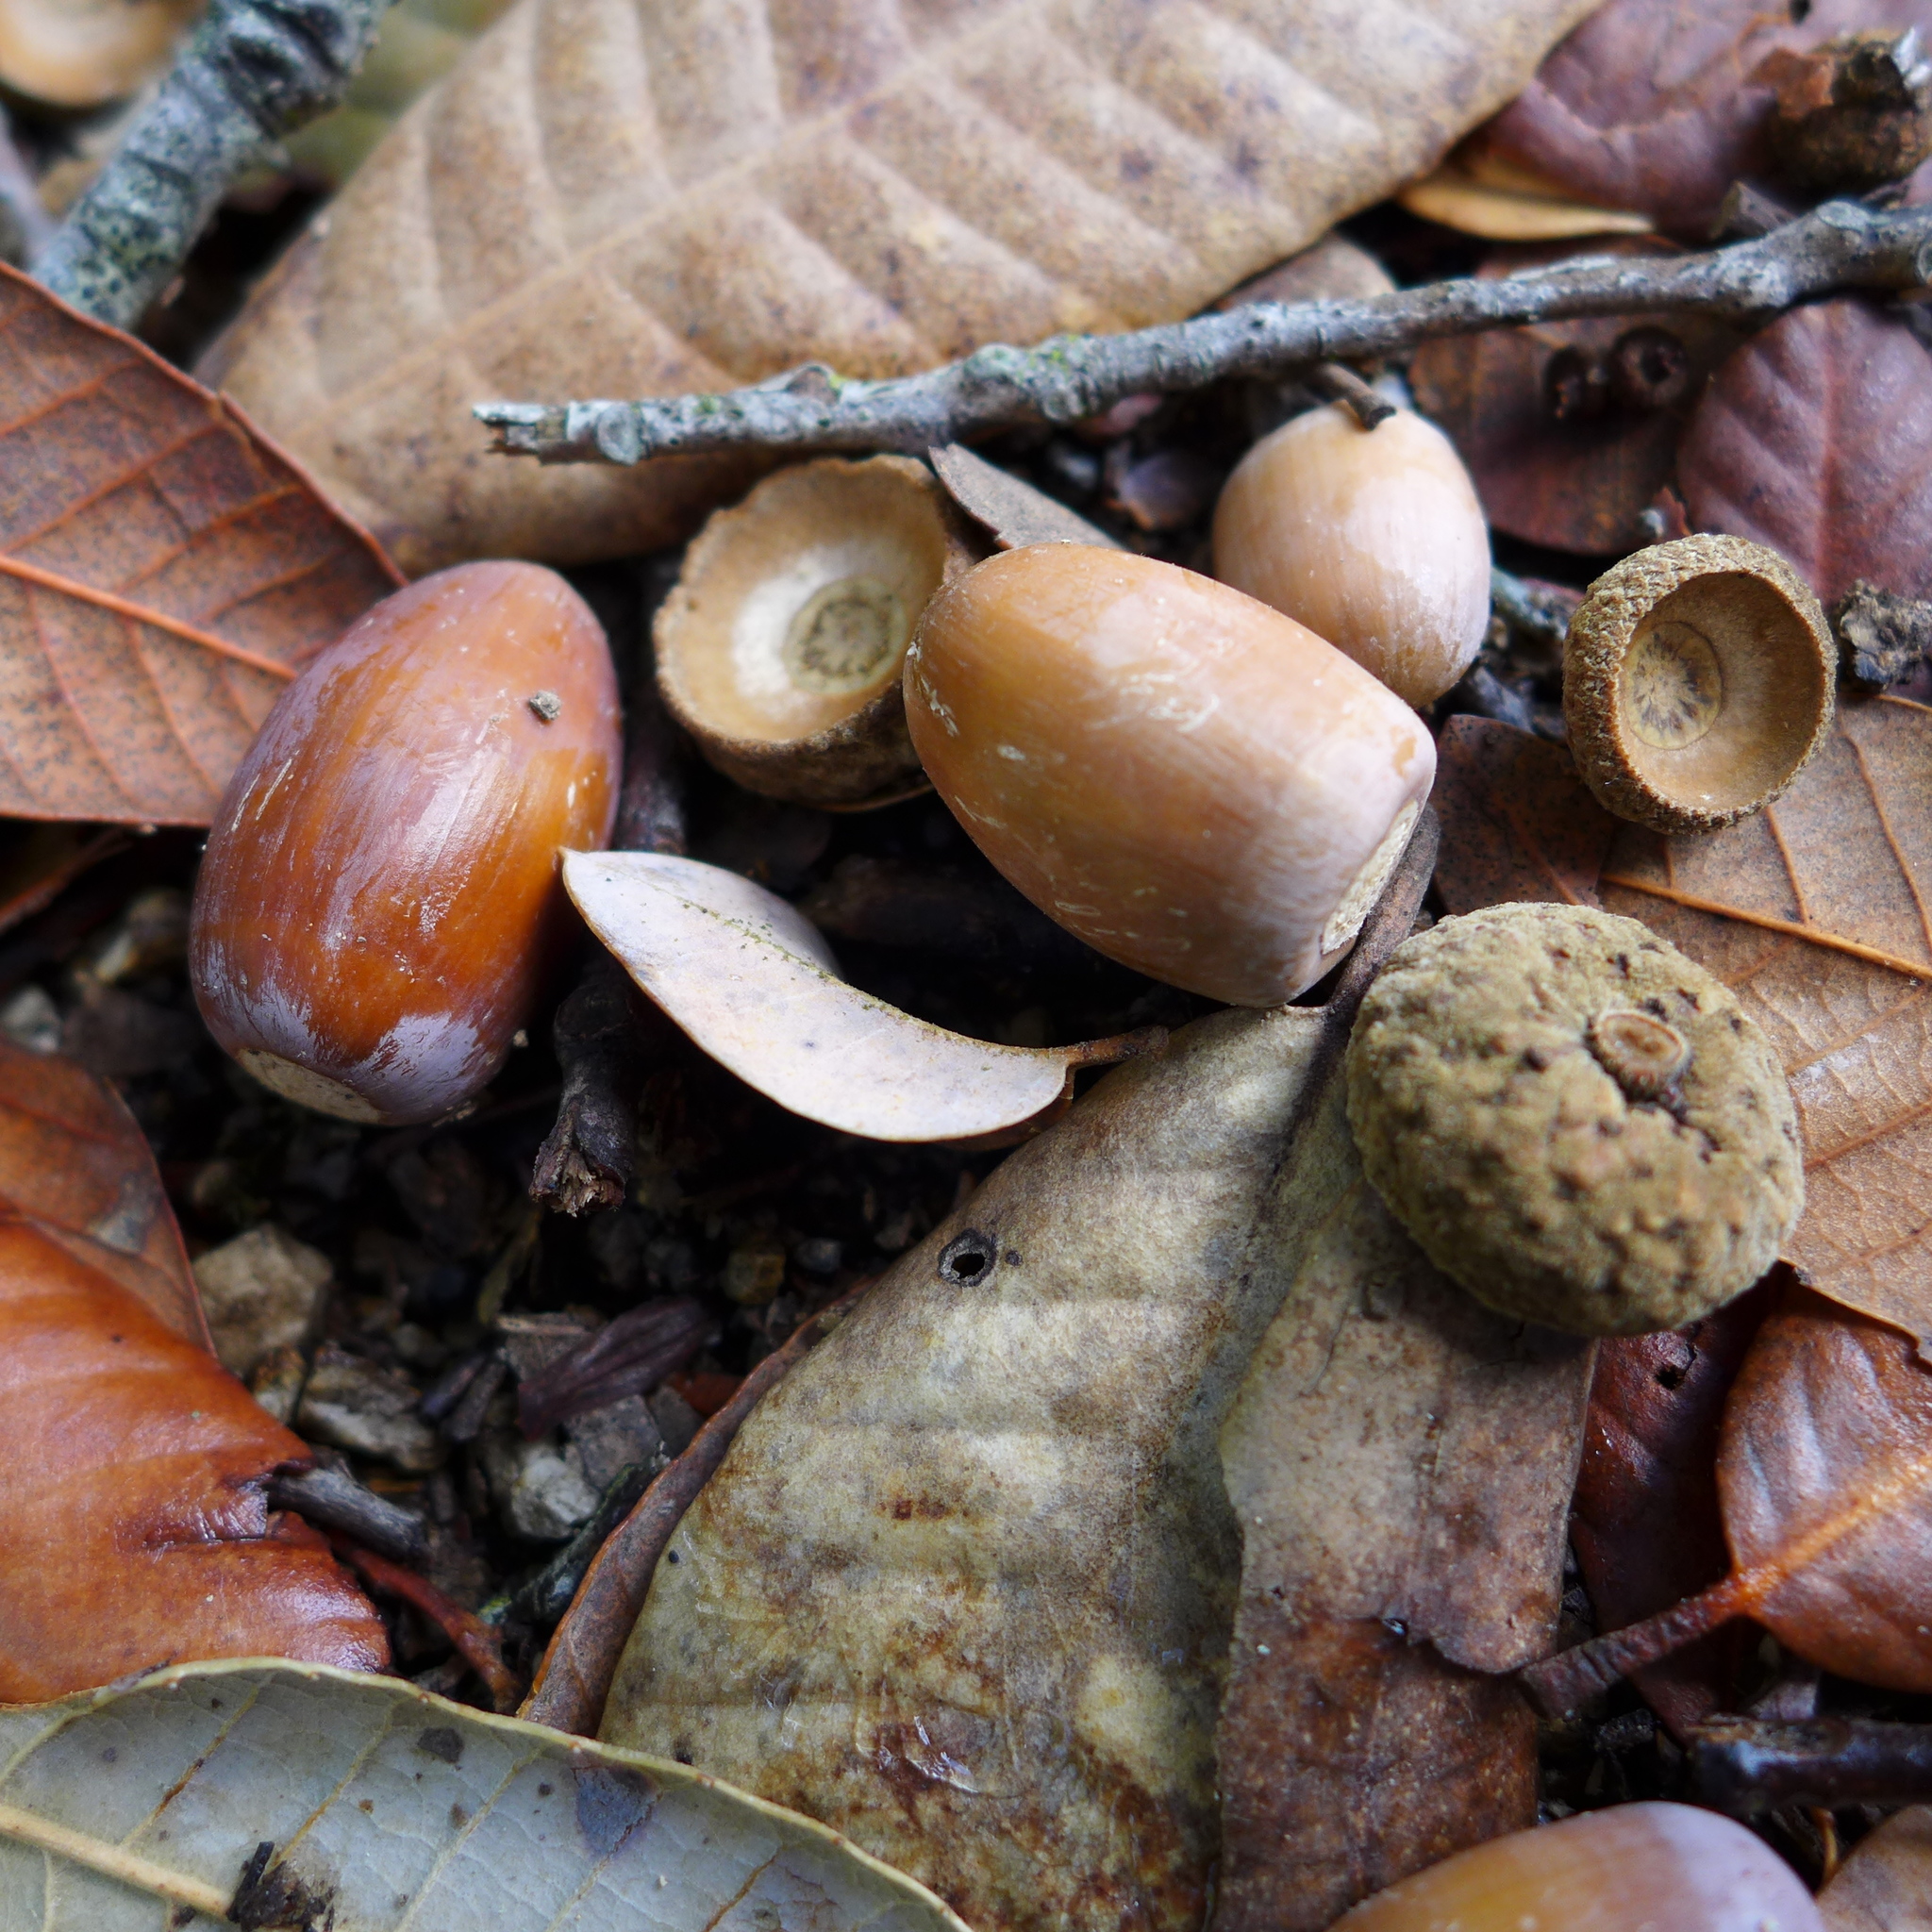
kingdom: Plantae
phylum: Tracheophyta
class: Magnoliopsida
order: Fagales
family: Fagaceae
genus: Quercus
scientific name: Quercus agrifolia
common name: California live oak
